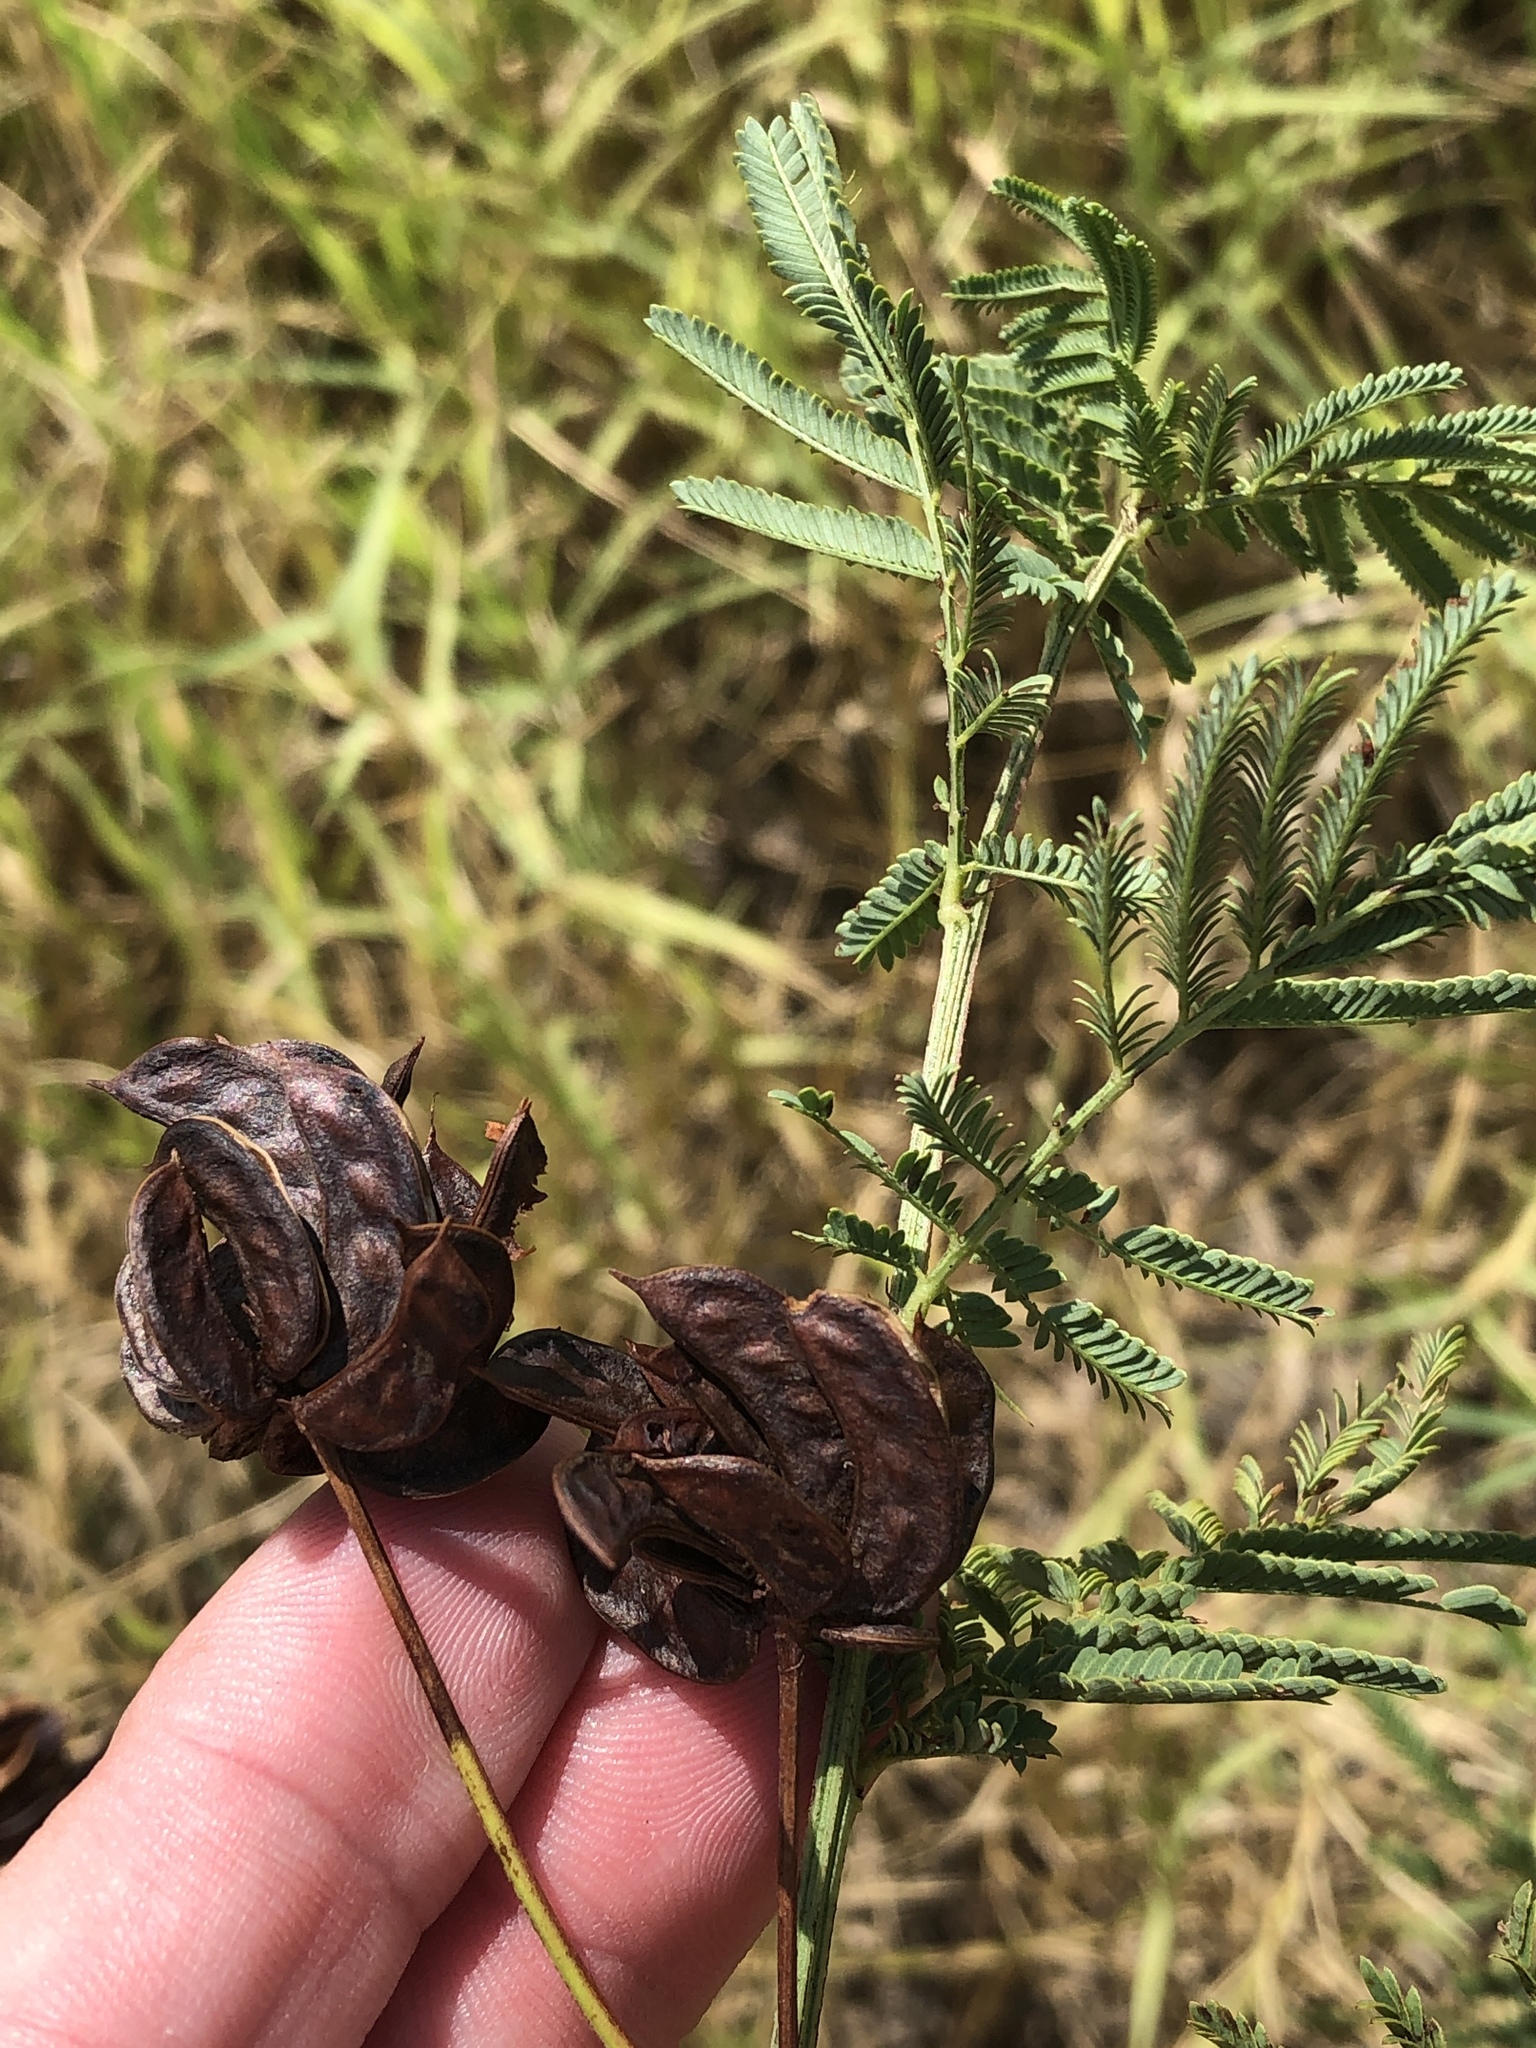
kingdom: Plantae
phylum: Tracheophyta
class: Magnoliopsida
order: Fabales
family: Fabaceae
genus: Desmanthus
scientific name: Desmanthus illinoensis
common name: Illinois bundle-flower
